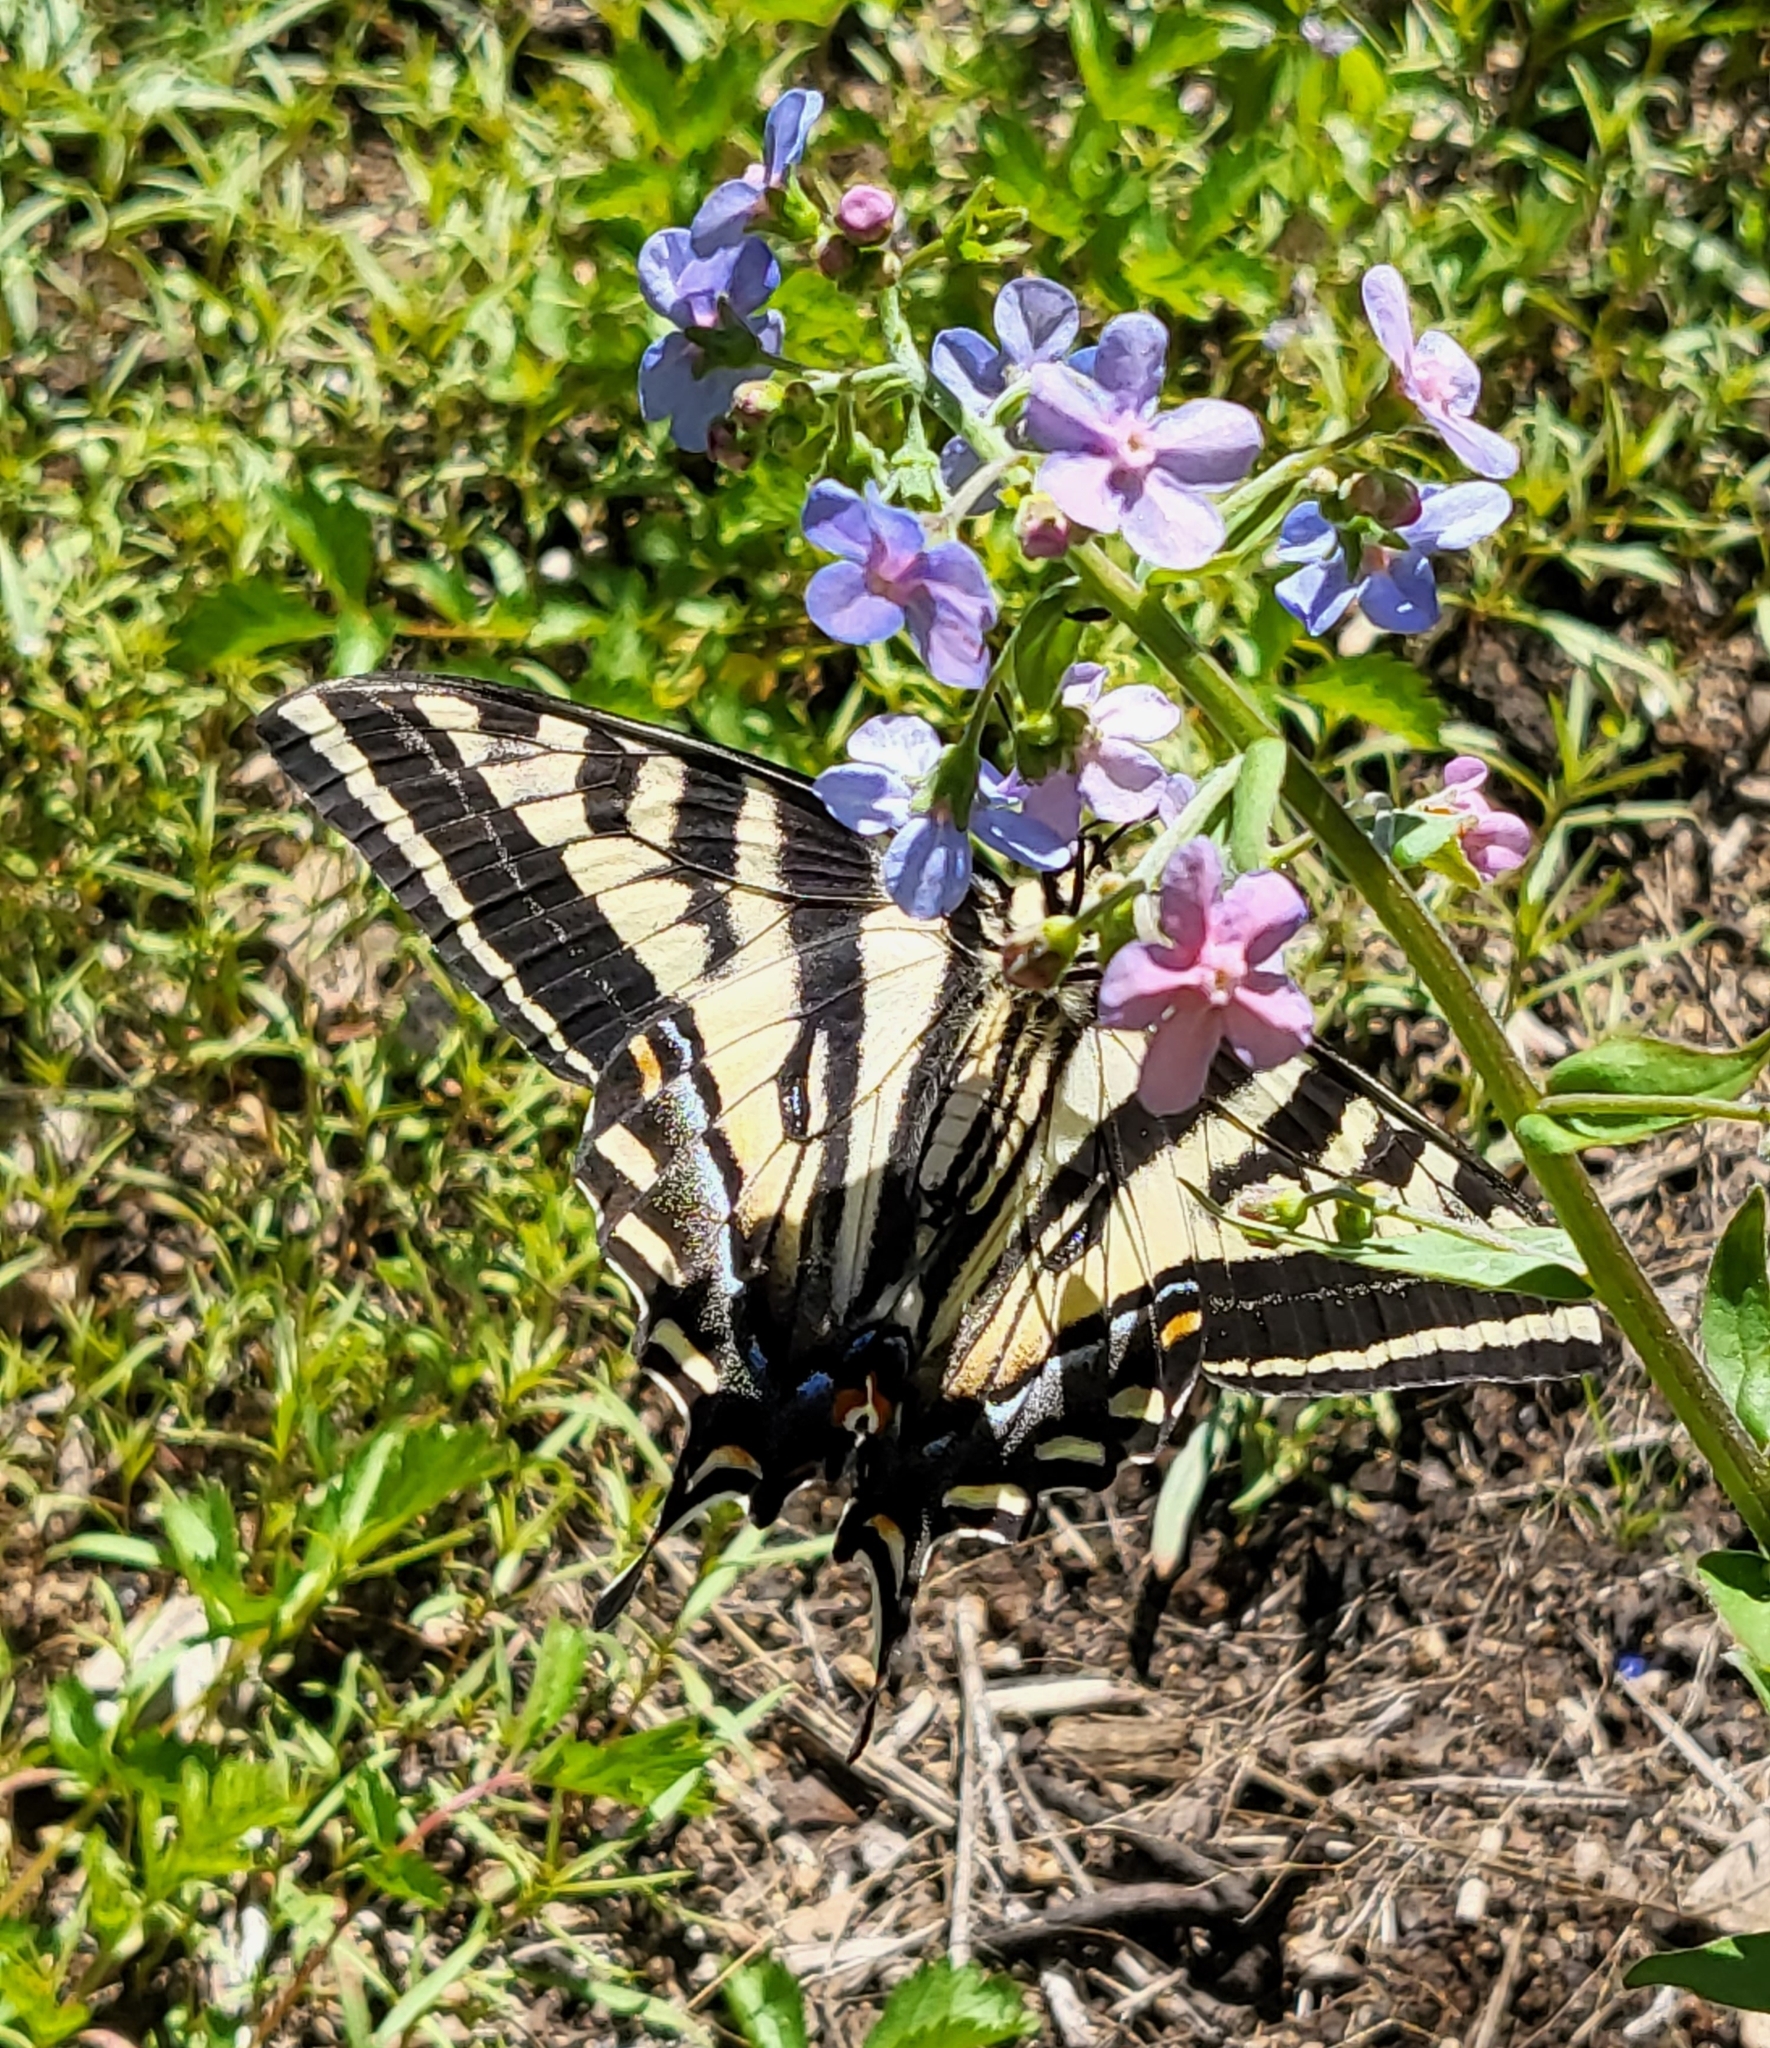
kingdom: Animalia
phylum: Arthropoda
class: Insecta
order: Lepidoptera
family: Papilionidae
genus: Papilio
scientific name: Papilio eurymedon
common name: Pale tiger swallowtail
